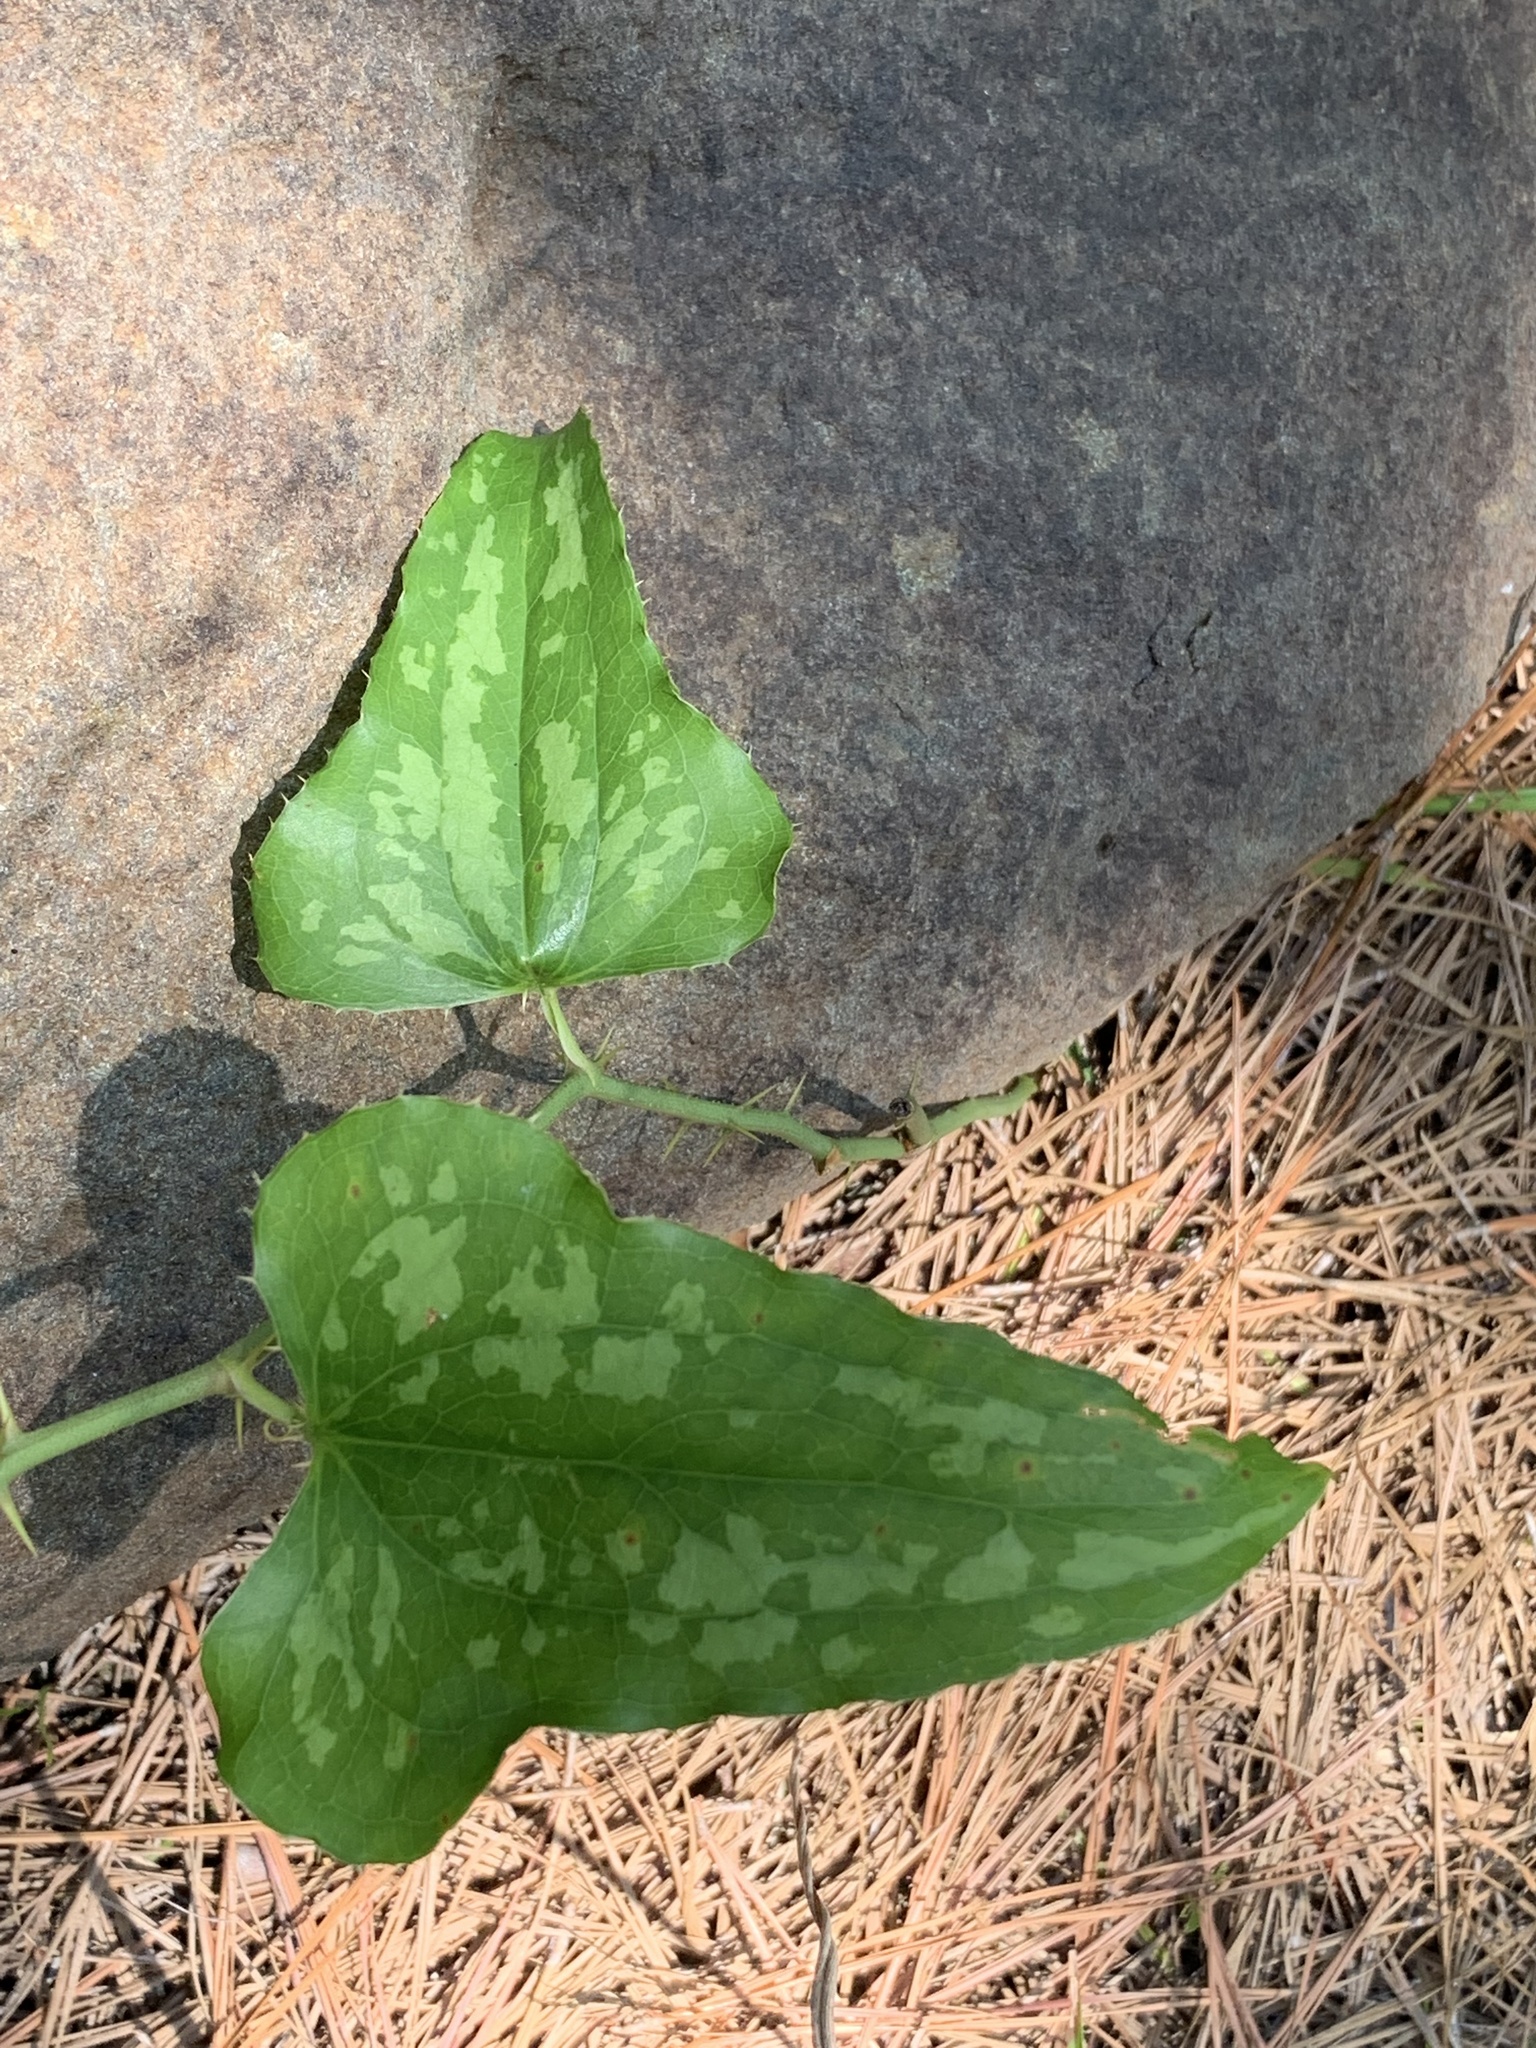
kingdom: Plantae
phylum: Tracheophyta
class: Liliopsida
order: Liliales
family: Smilacaceae
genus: Smilax
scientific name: Smilax bona-nox
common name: Catbrier
